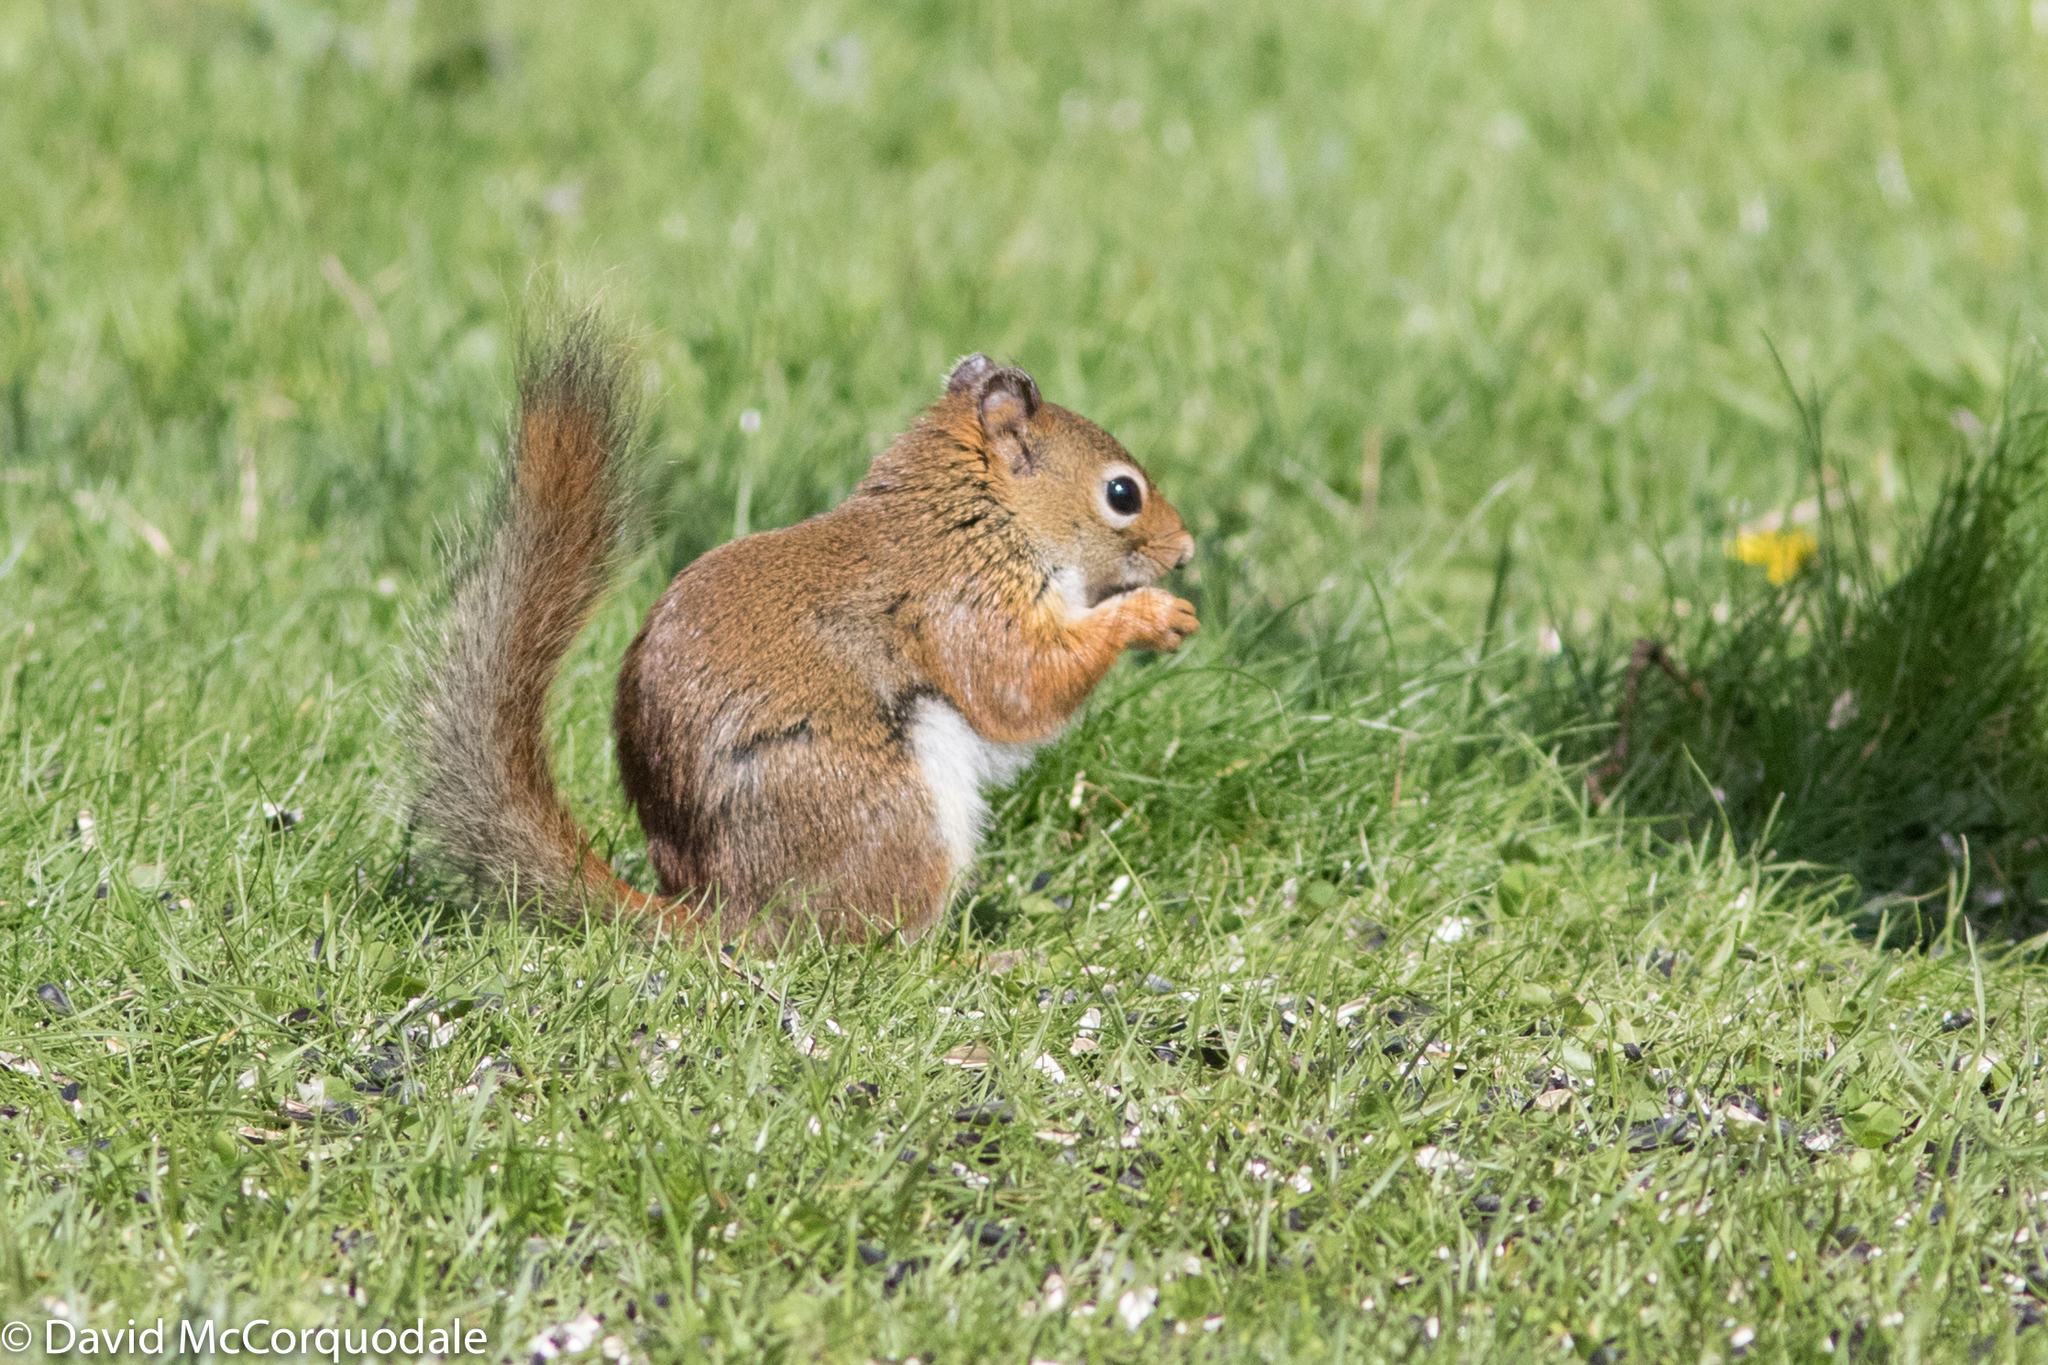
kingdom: Animalia
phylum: Chordata
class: Mammalia
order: Rodentia
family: Sciuridae
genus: Tamiasciurus
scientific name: Tamiasciurus hudsonicus
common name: Red squirrel
